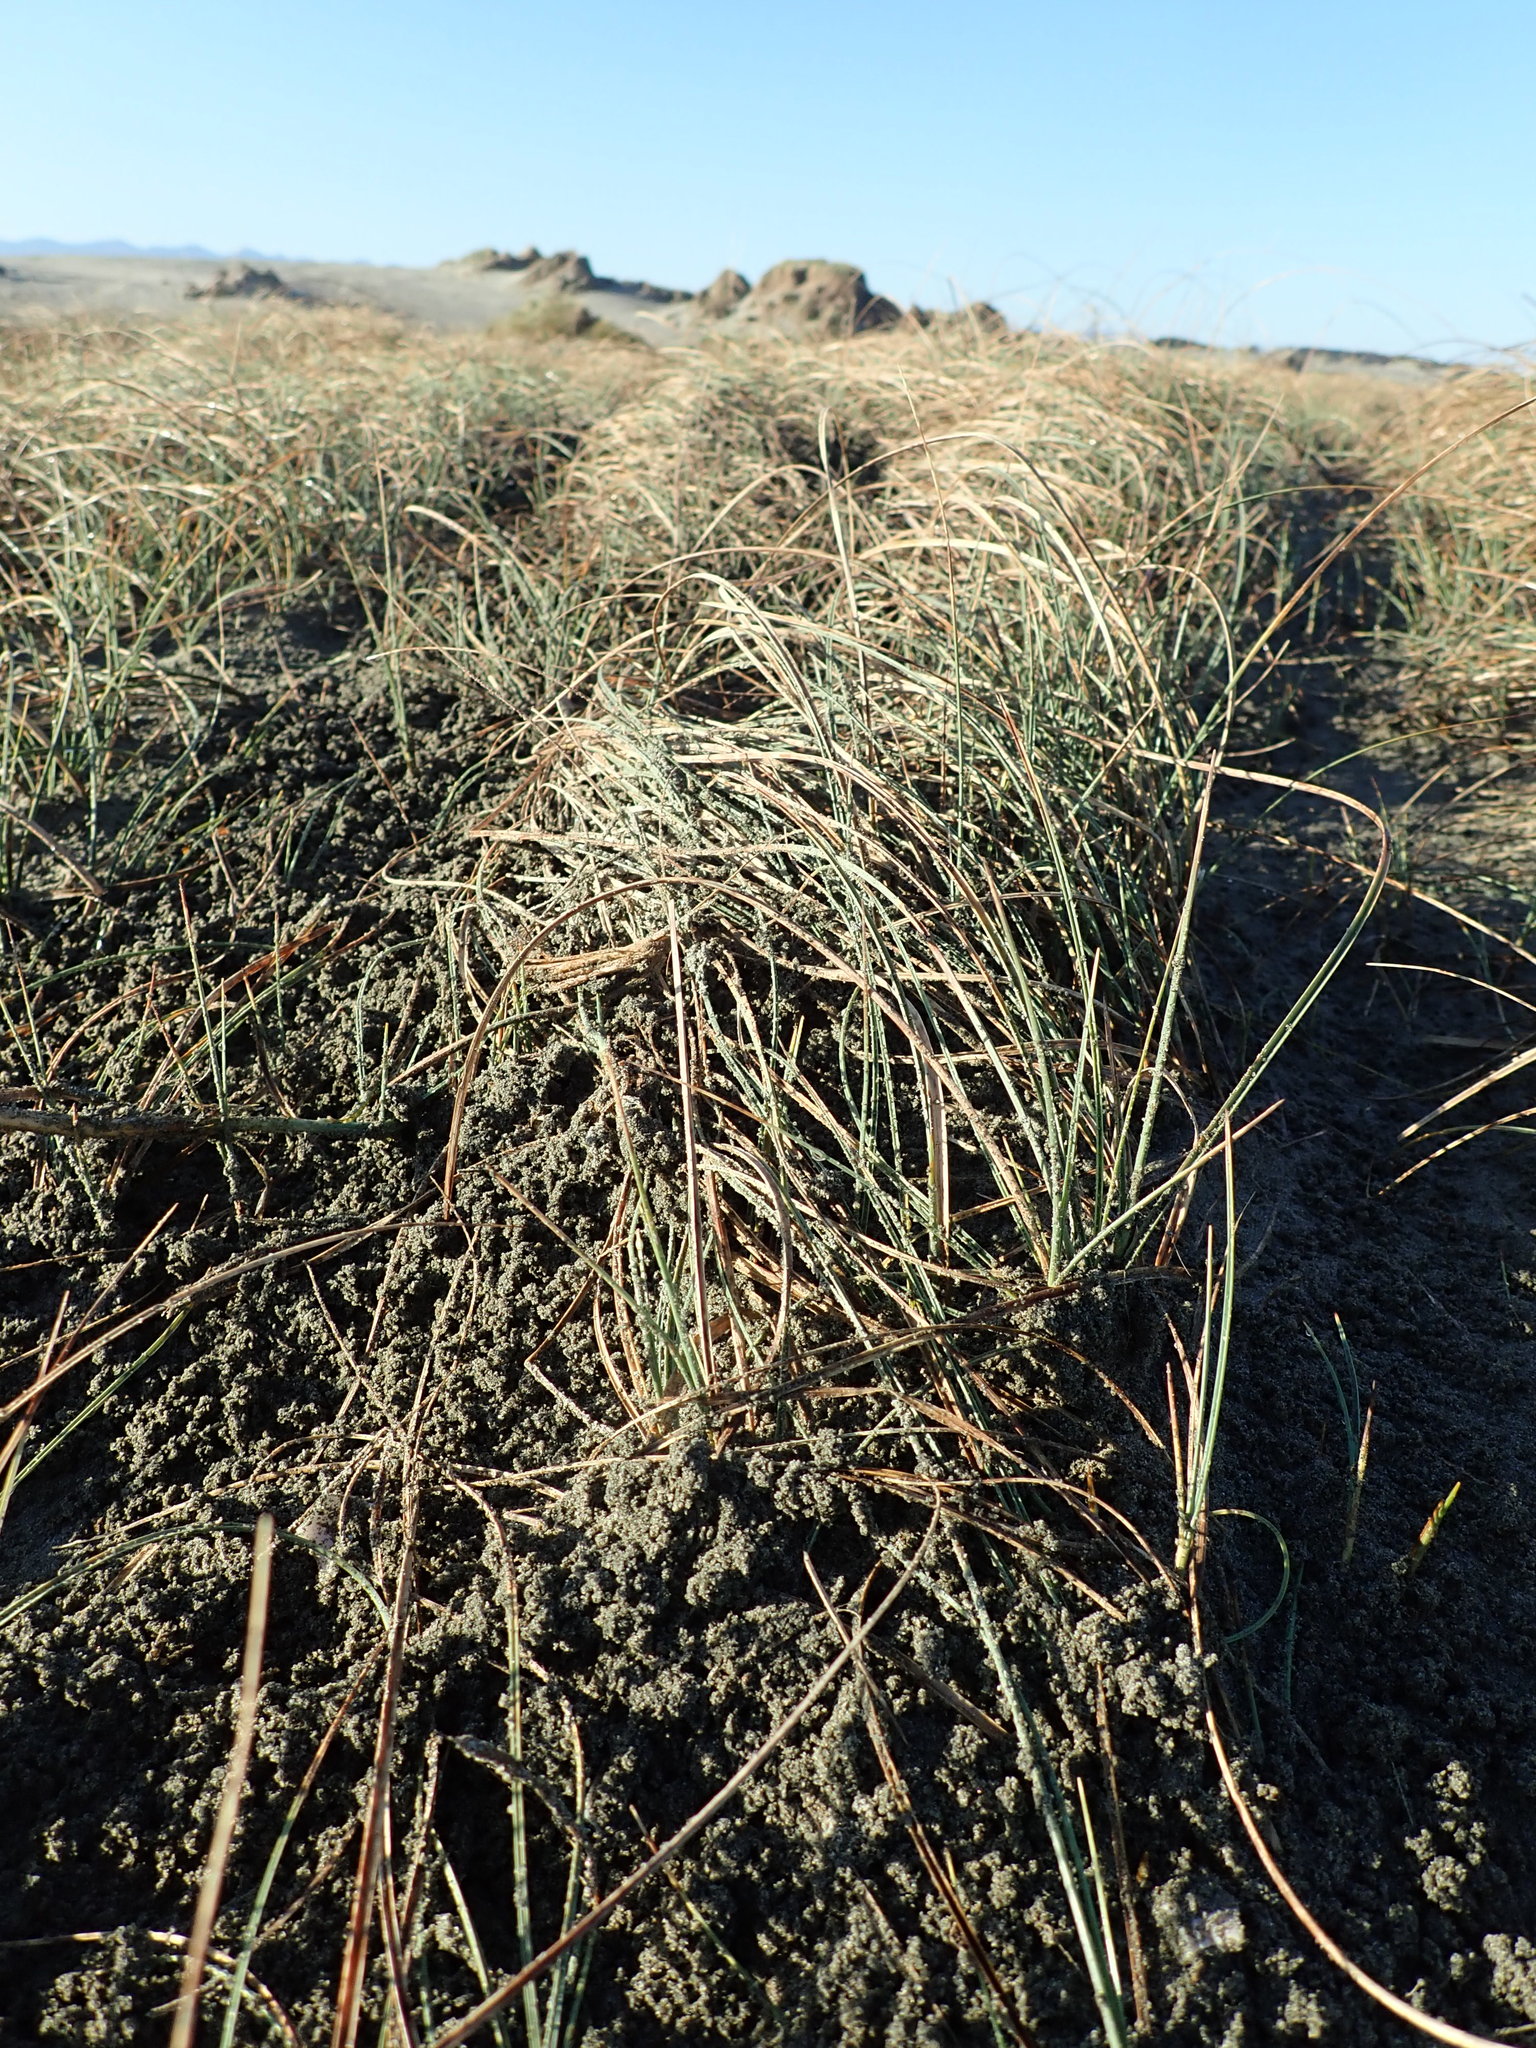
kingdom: Plantae
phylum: Tracheophyta
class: Liliopsida
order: Poales
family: Cyperaceae
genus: Carex
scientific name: Carex pumila
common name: Dwarf sedge
